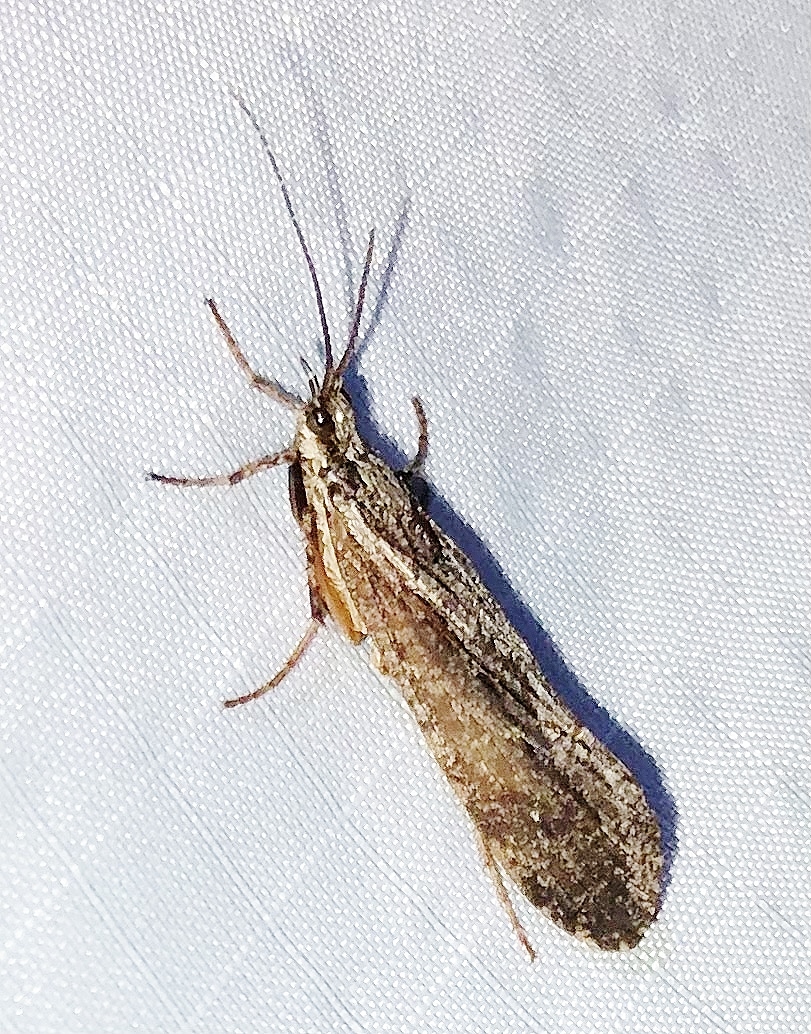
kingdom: Animalia
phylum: Arthropoda
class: Insecta
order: Trichoptera
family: Phryganeidae
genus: Phryganea
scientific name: Phryganea sayi
